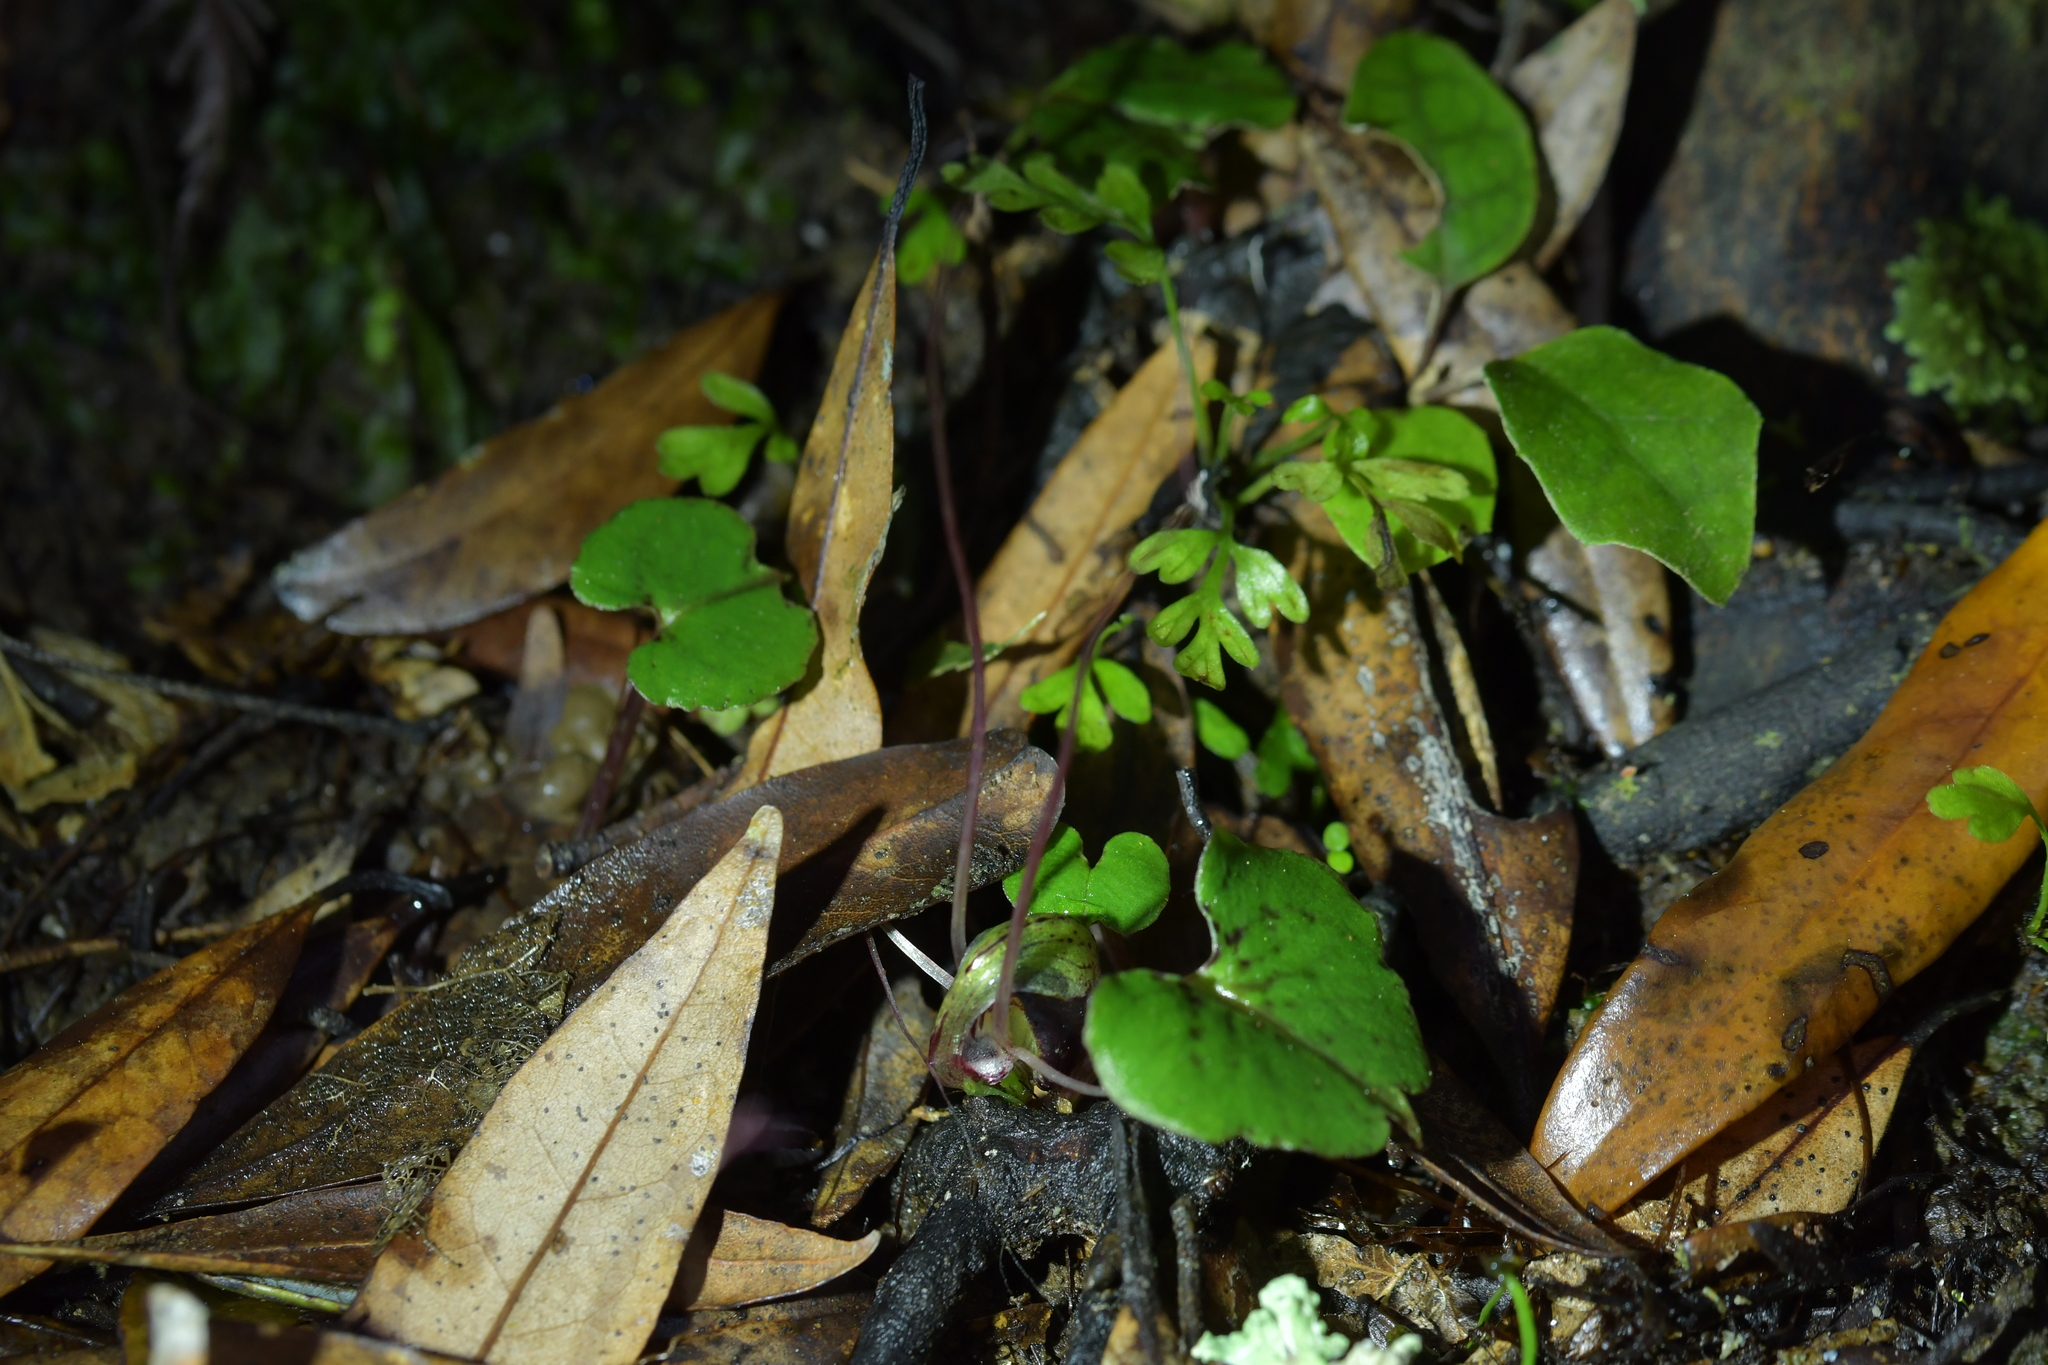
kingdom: Plantae
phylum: Tracheophyta
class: Liliopsida
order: Asparagales
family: Orchidaceae
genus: Corybas
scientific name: Corybas sanctigeorgianus
